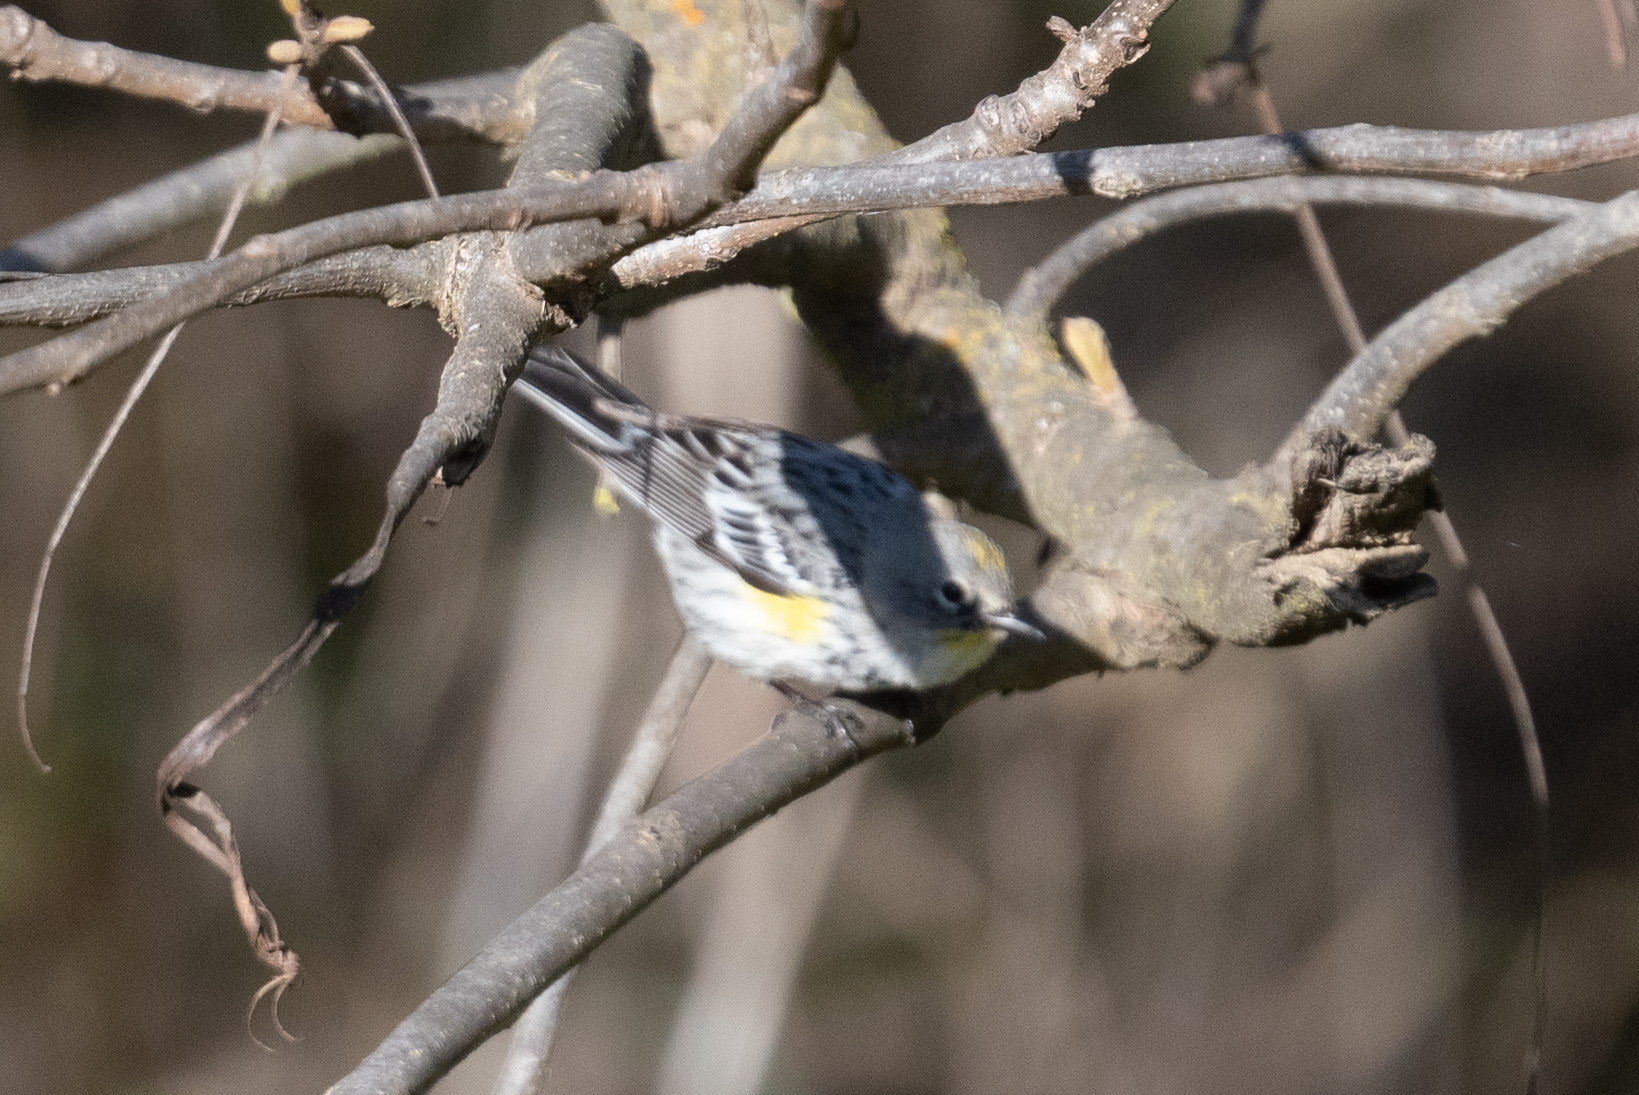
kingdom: Animalia
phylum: Chordata
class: Aves
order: Passeriformes
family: Parulidae
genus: Setophaga
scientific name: Setophaga coronata
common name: Myrtle warbler
